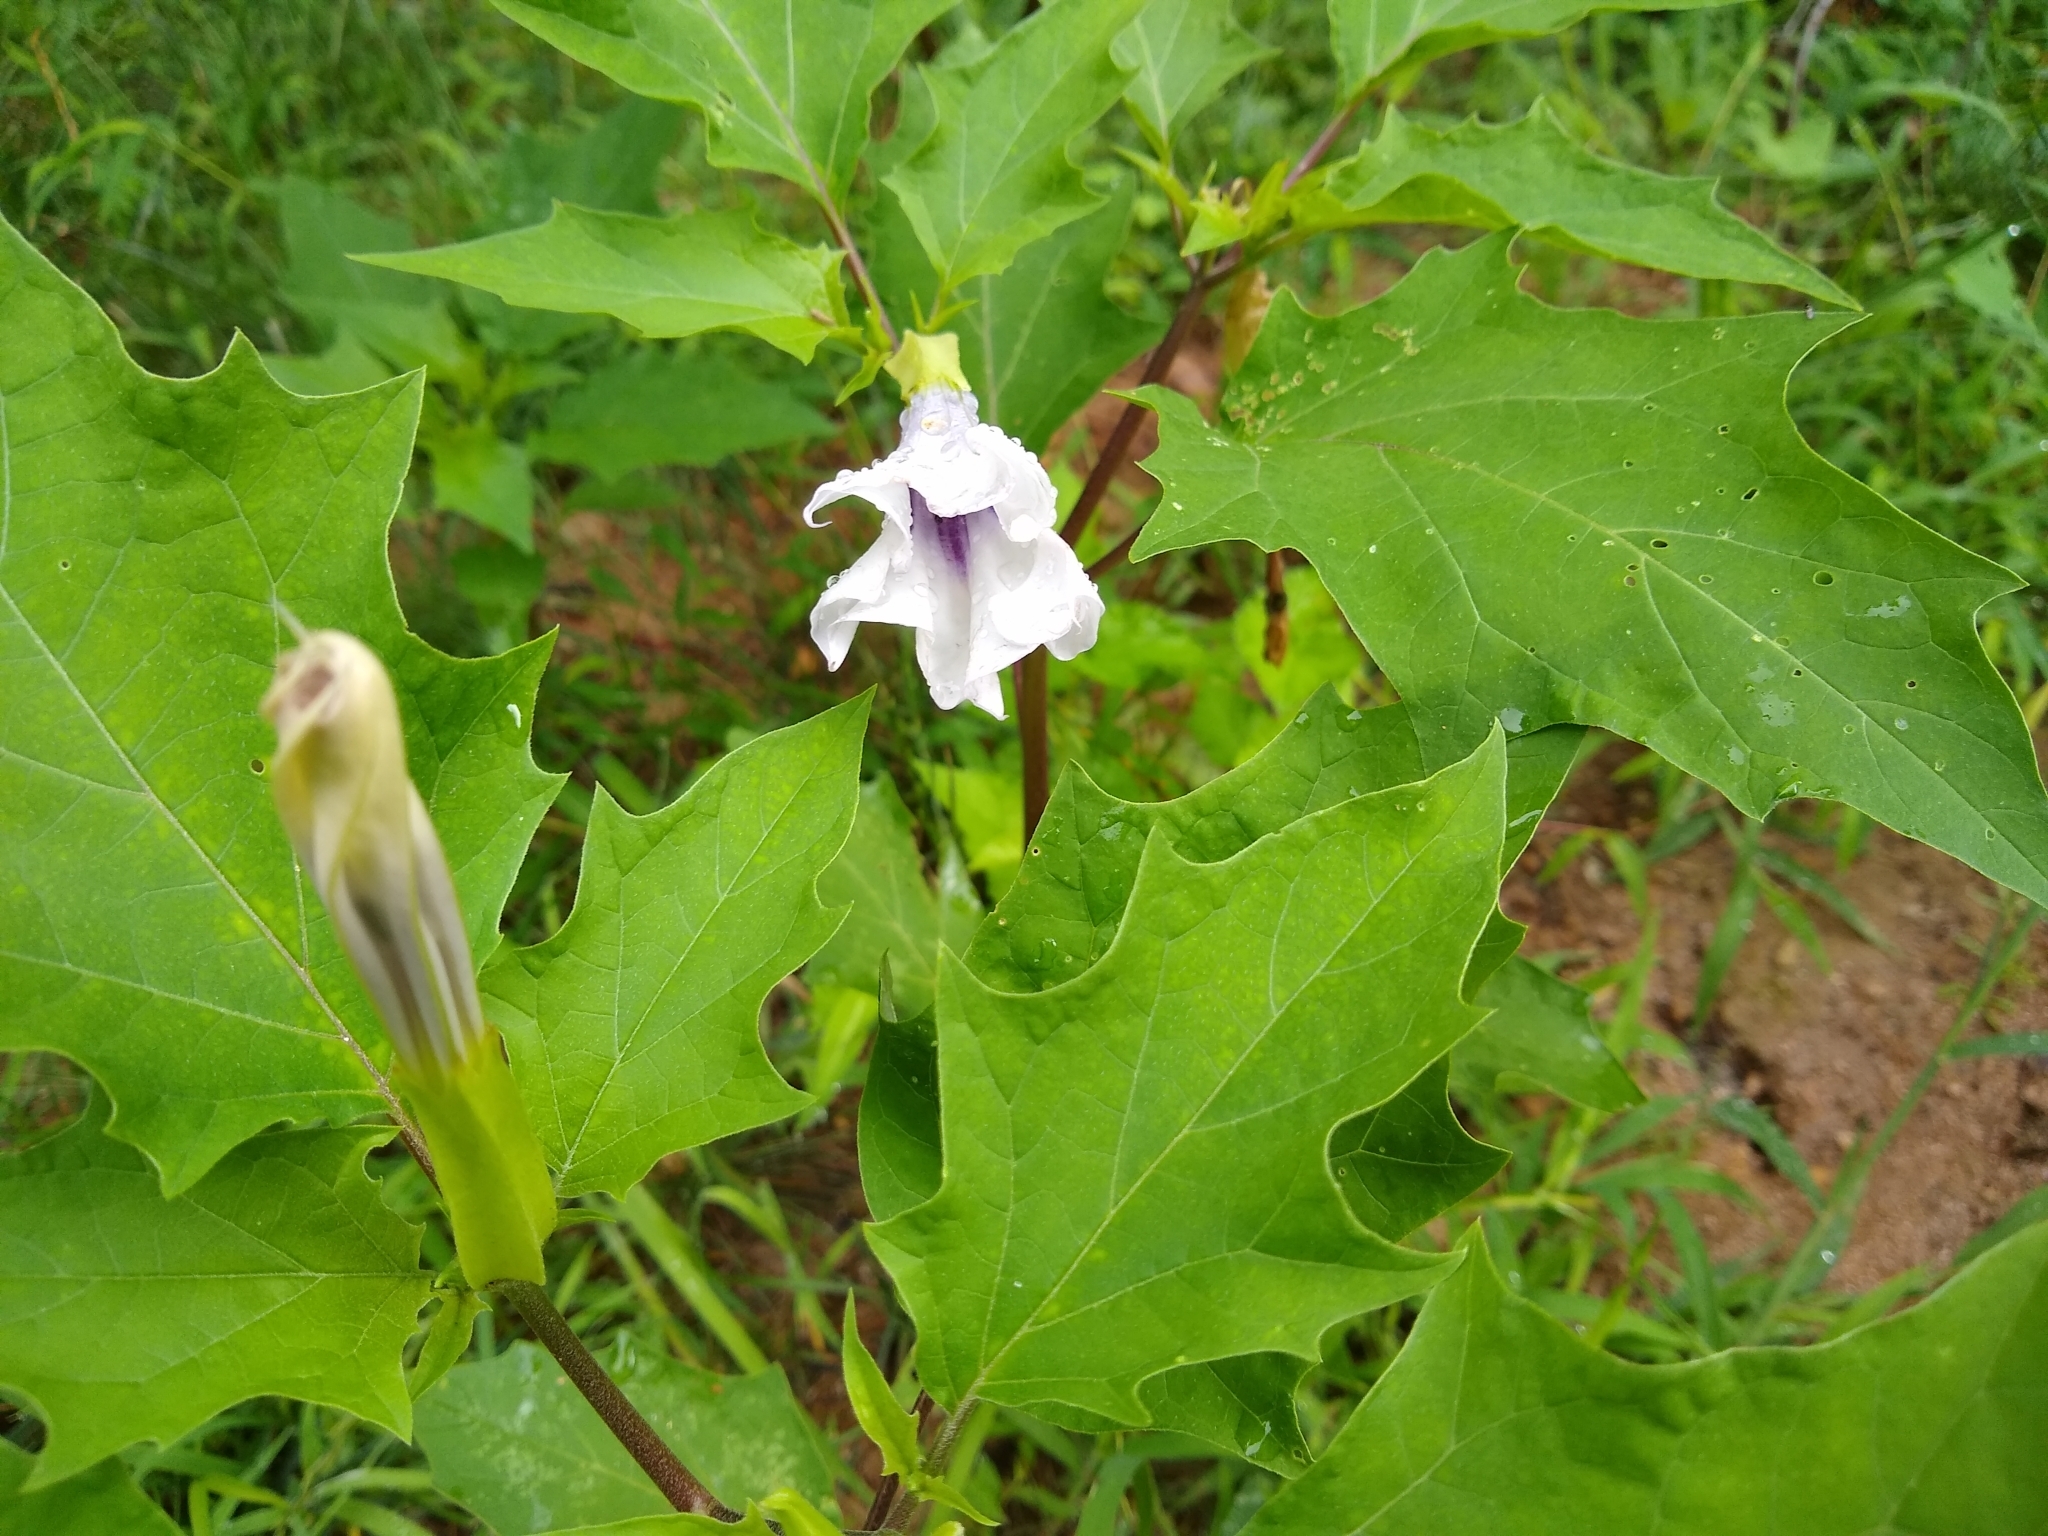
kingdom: Plantae
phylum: Tracheophyta
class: Magnoliopsida
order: Solanales
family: Solanaceae
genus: Datura
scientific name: Datura stramonium
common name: Thorn-apple
